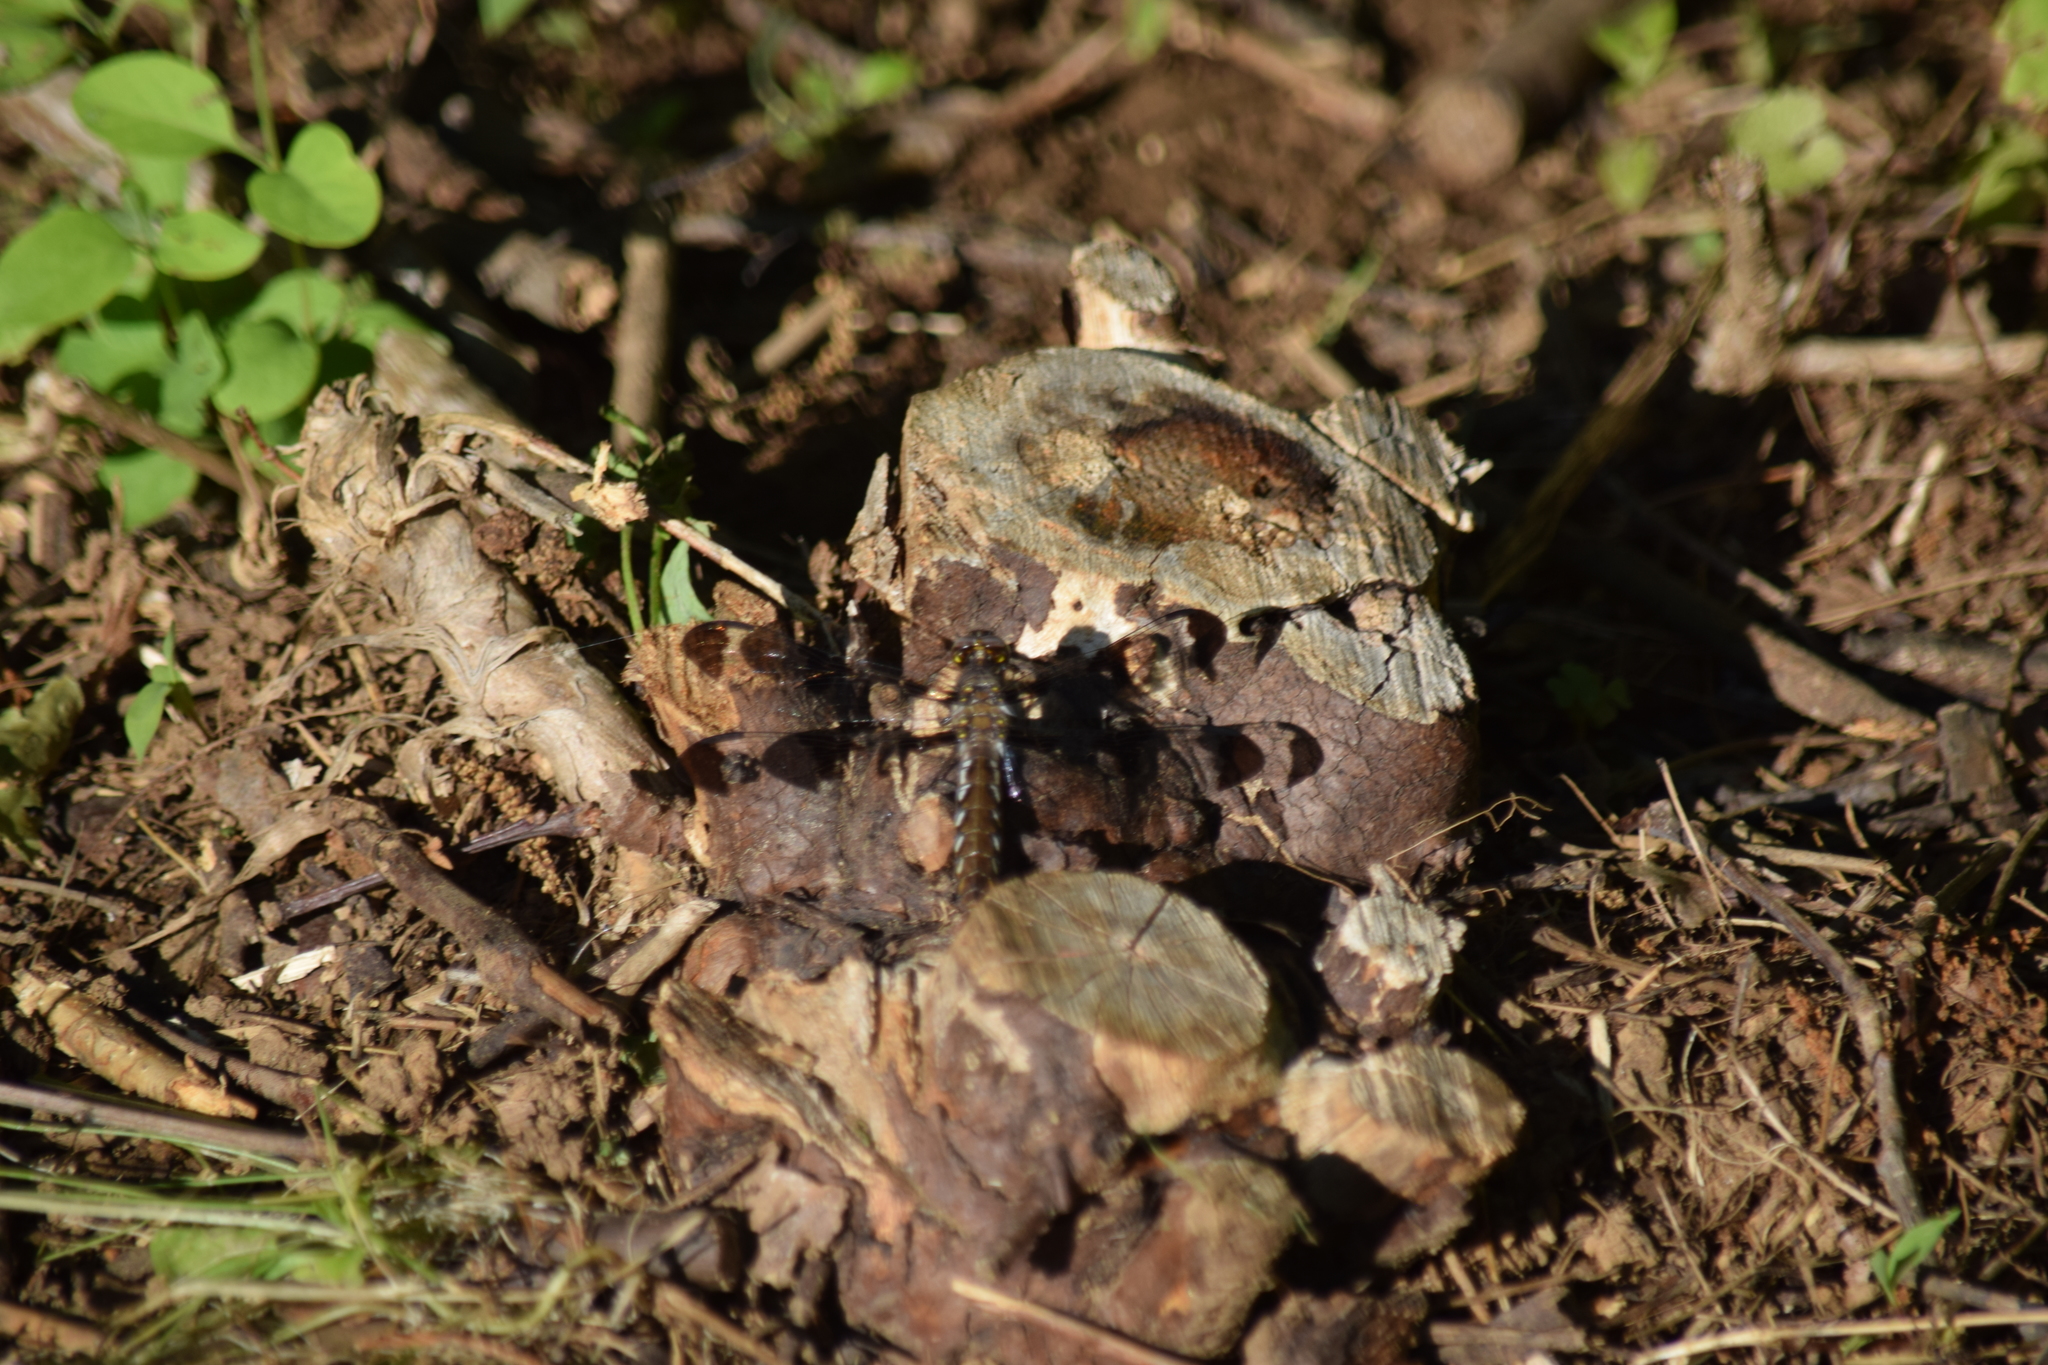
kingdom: Animalia
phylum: Arthropoda
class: Insecta
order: Odonata
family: Libellulidae
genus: Plathemis
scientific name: Plathemis lydia
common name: Common whitetail
